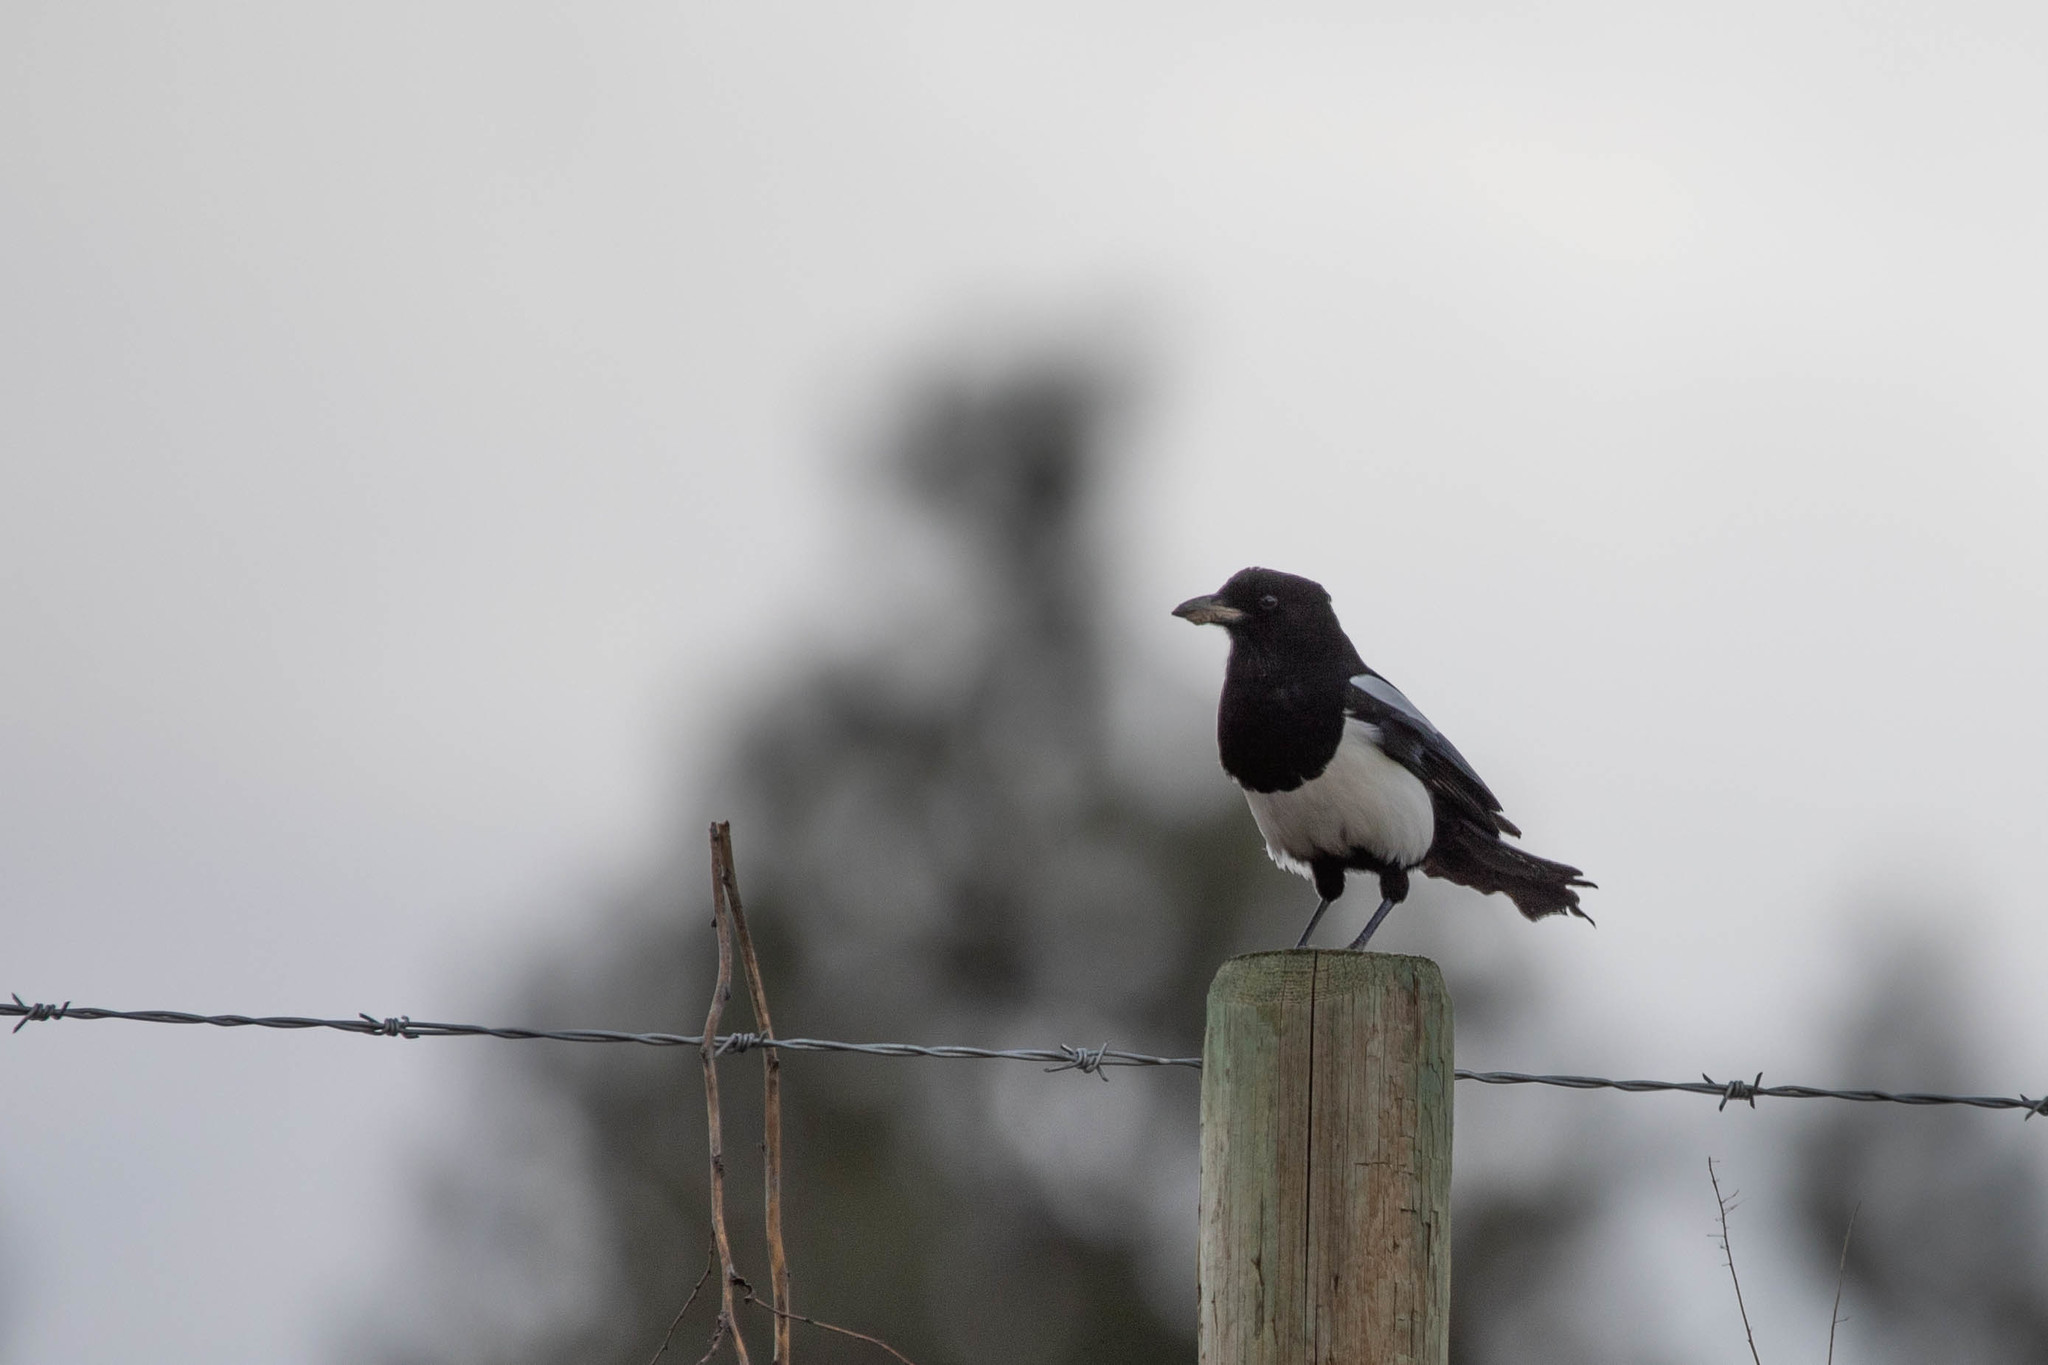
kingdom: Animalia
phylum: Chordata
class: Aves
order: Passeriformes
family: Corvidae
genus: Pica
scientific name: Pica hudsonia
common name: Black-billed magpie
